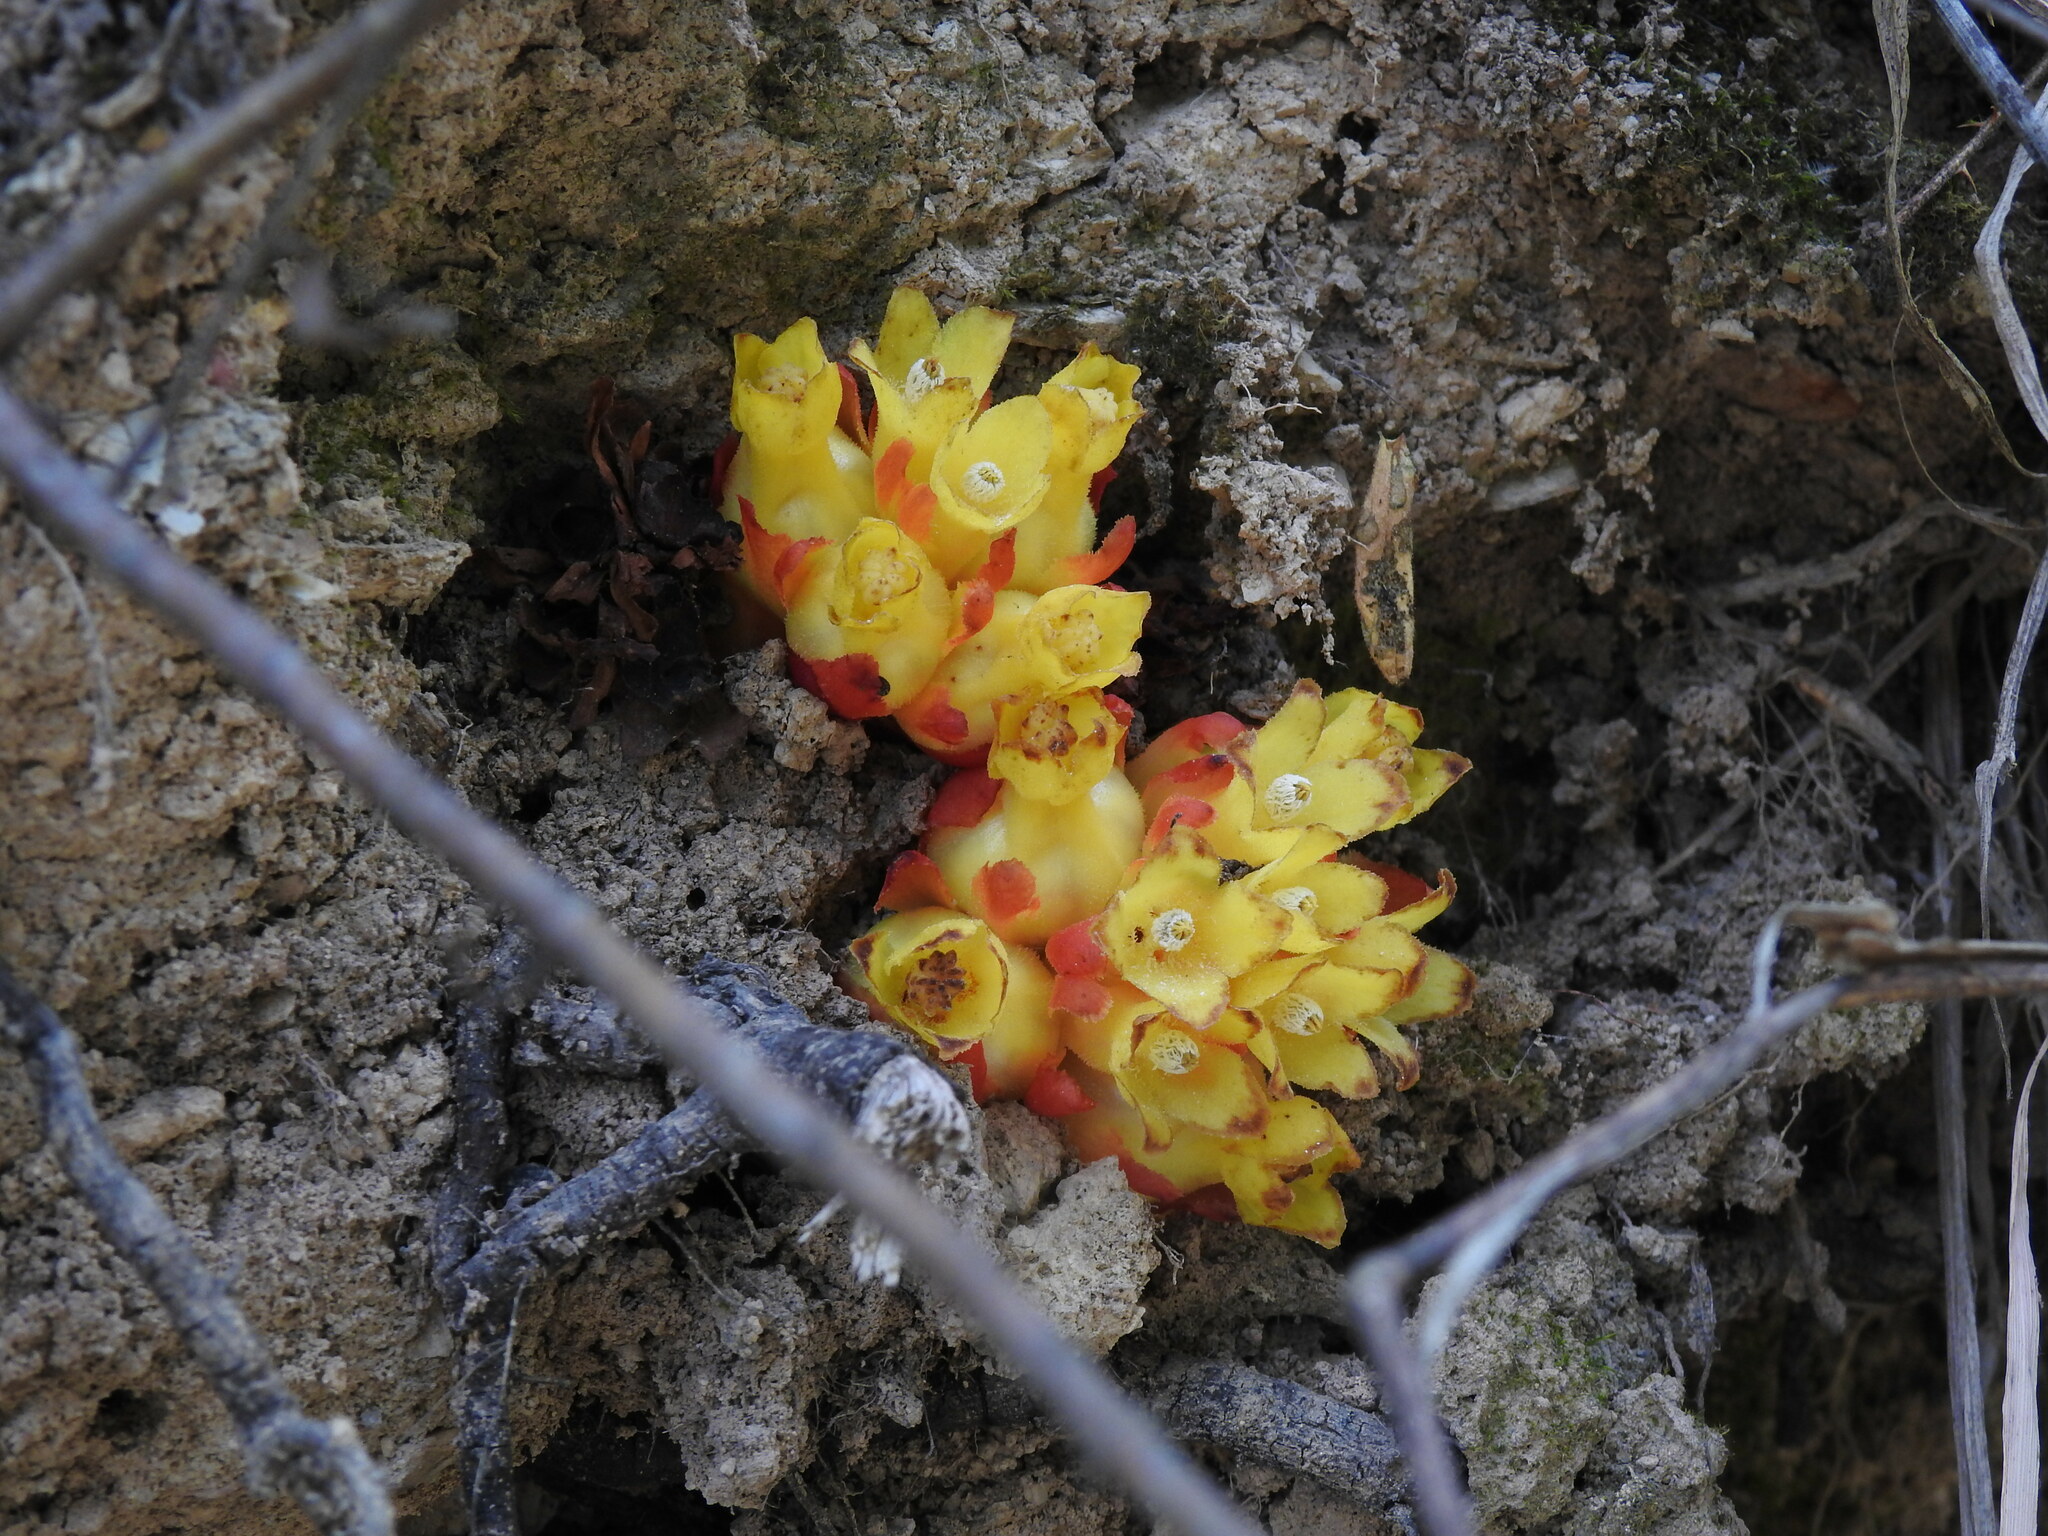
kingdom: Plantae
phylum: Tracheophyta
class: Magnoliopsida
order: Malvales
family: Cytinaceae
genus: Cytinus
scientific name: Cytinus hypocistis
